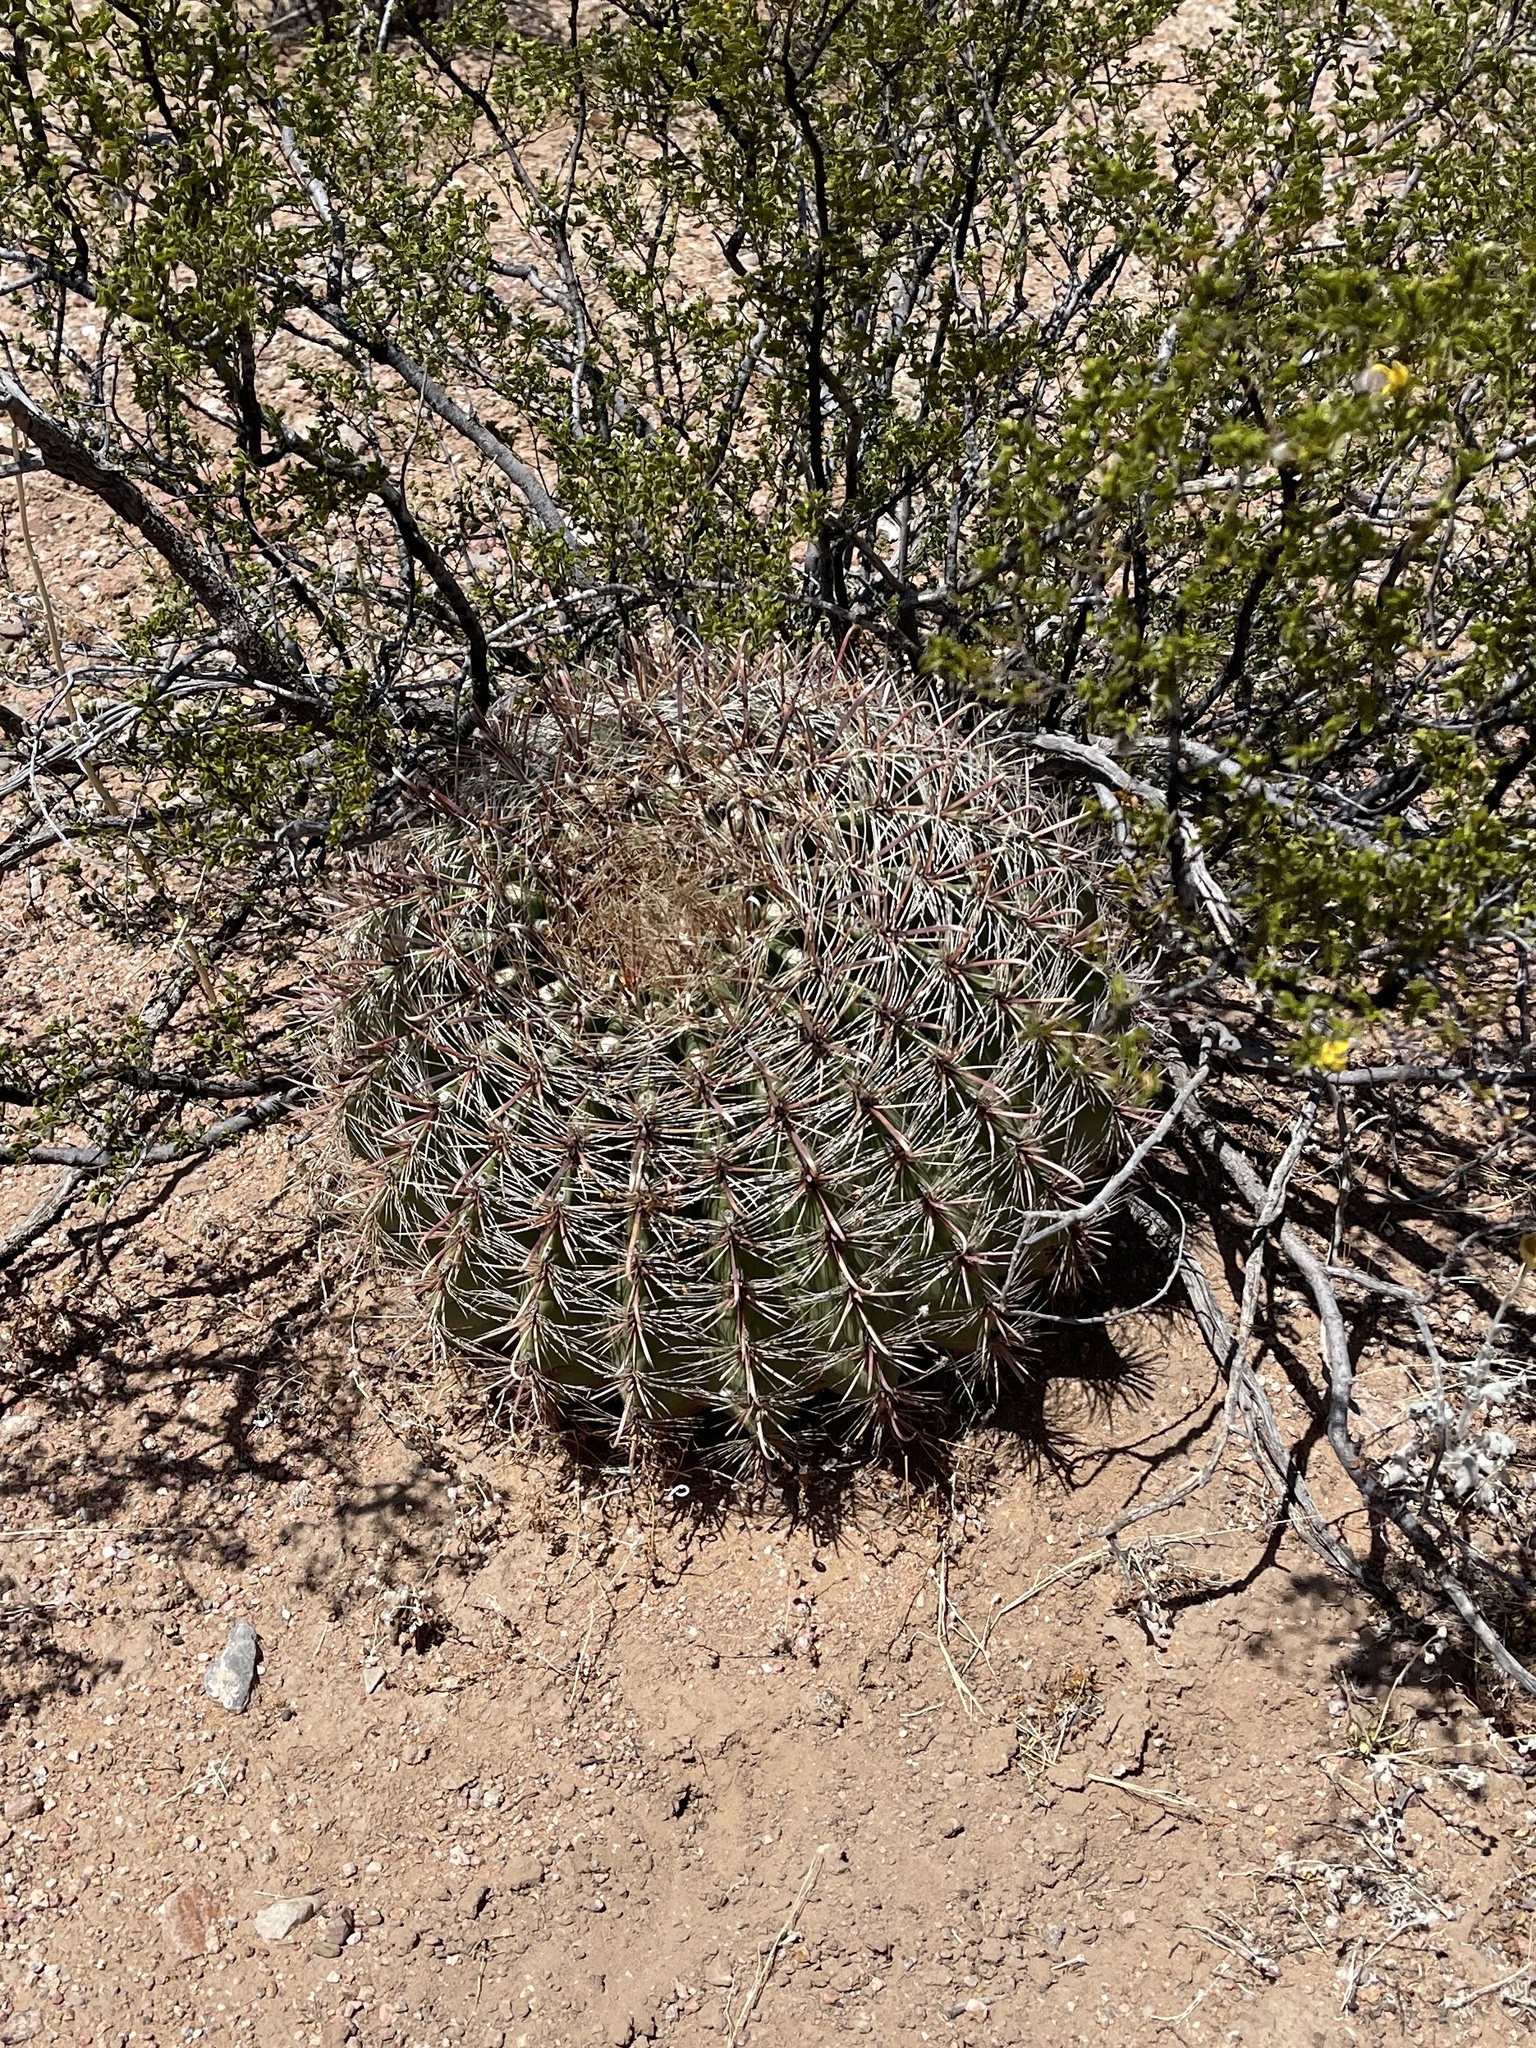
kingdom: Plantae
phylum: Tracheophyta
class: Magnoliopsida
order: Caryophyllales
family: Cactaceae
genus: Ferocactus
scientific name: Ferocactus wislizeni
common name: Candy barrel cactus
